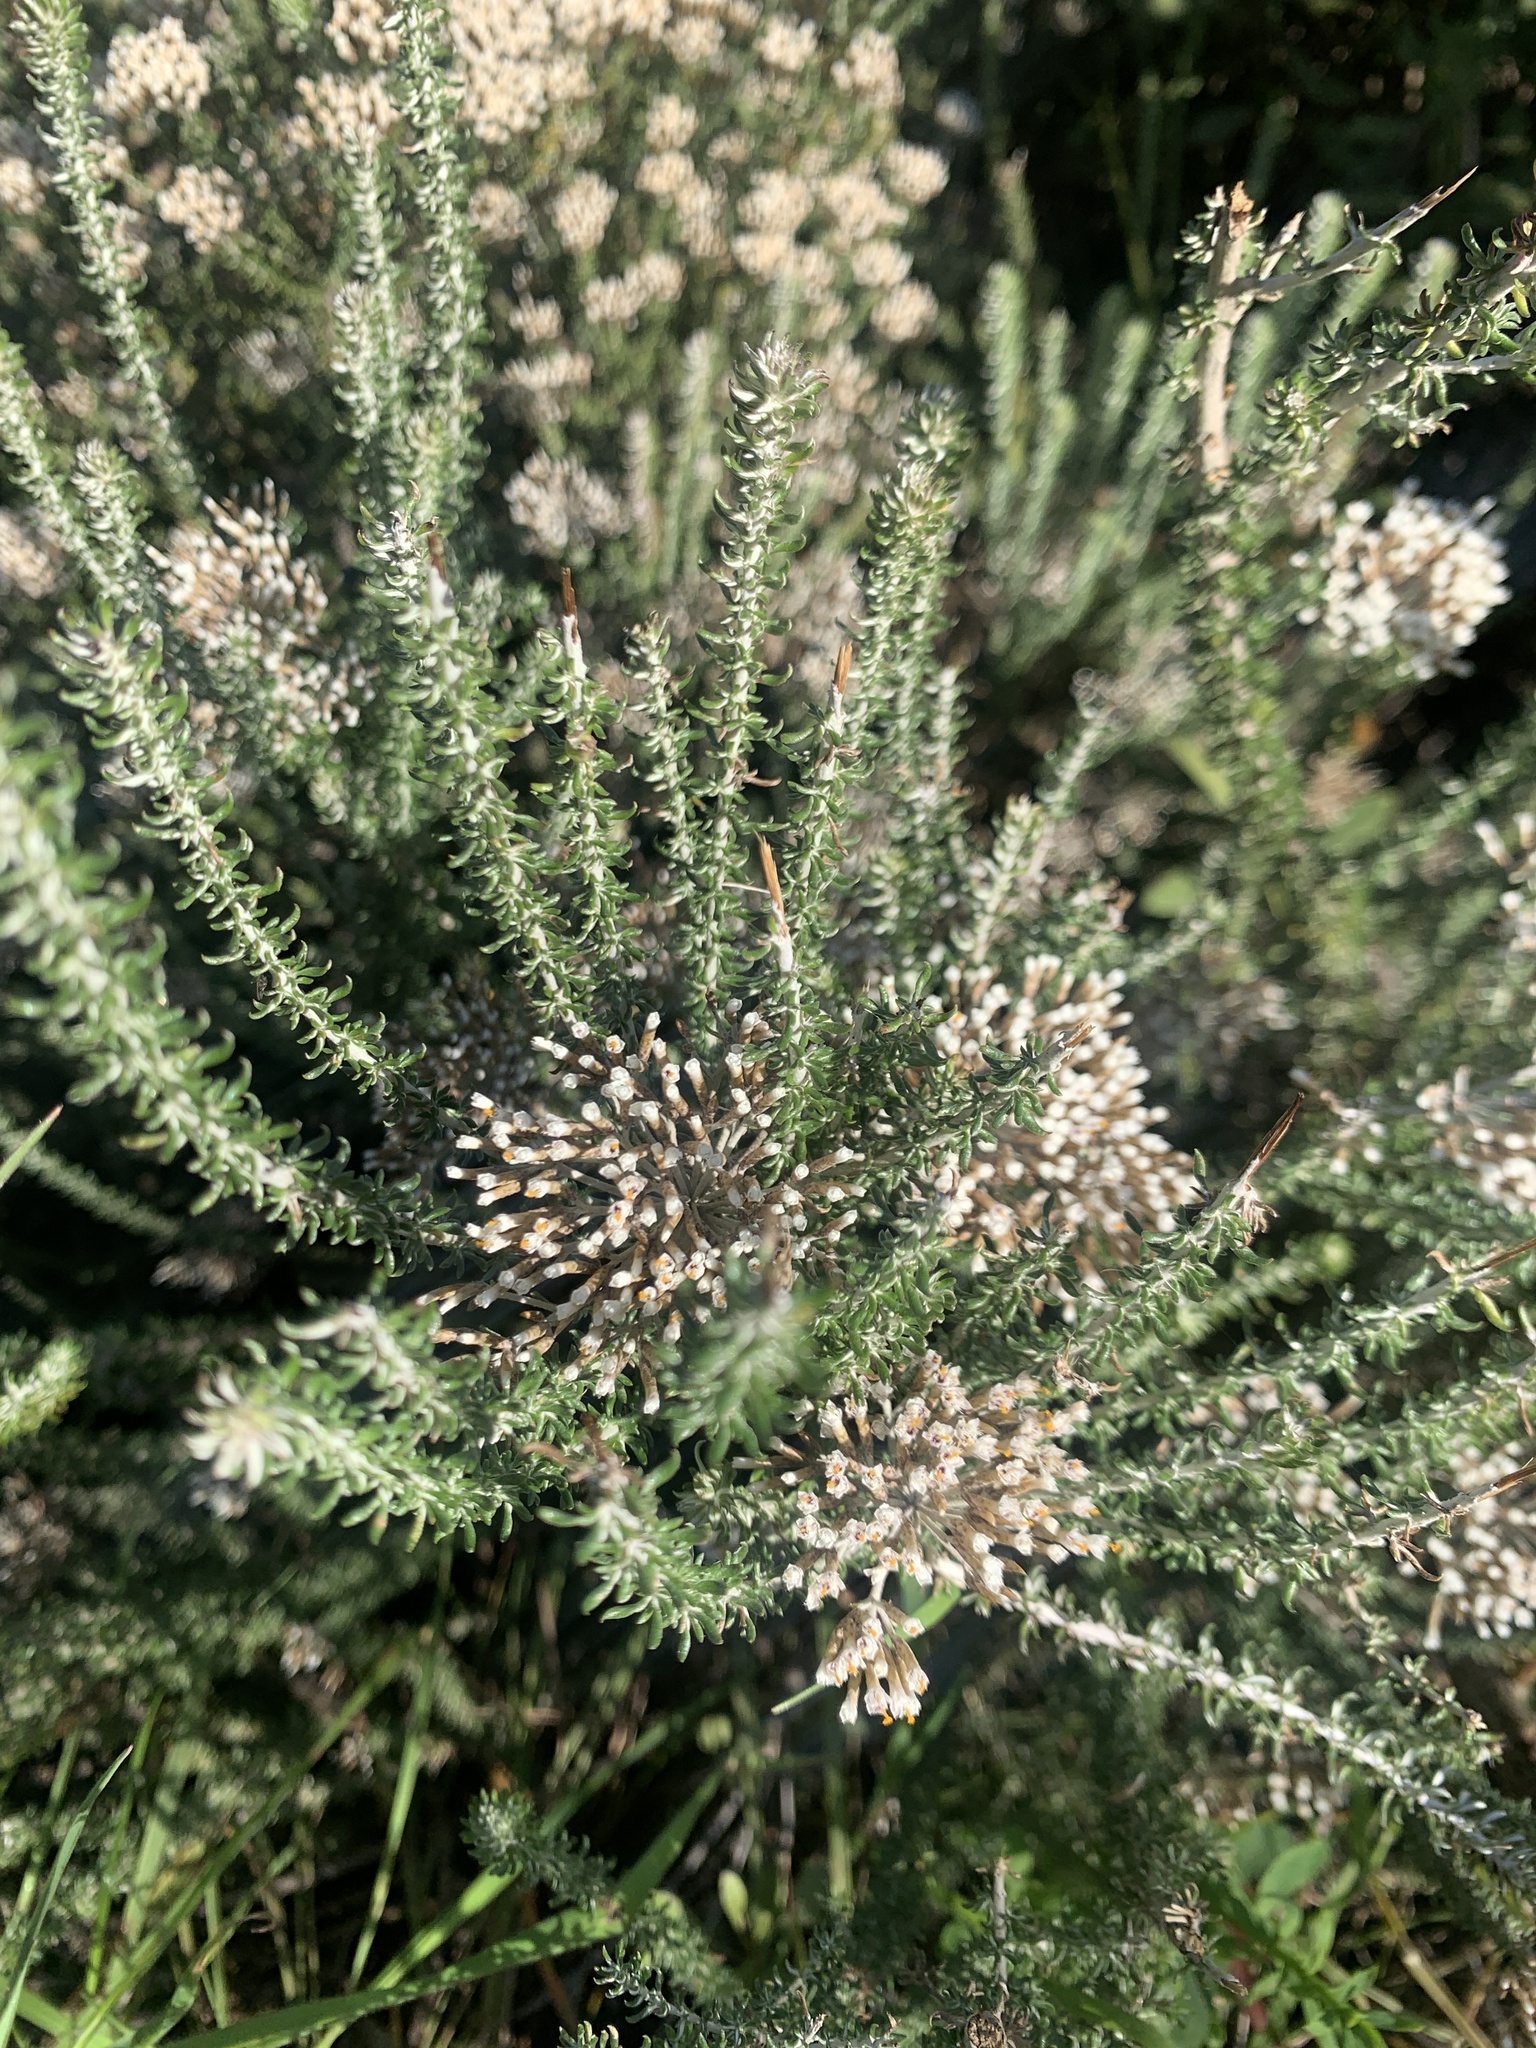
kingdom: Plantae
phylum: Tracheophyta
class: Magnoliopsida
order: Asterales
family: Asteraceae
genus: Metalasia
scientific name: Metalasia muricata
